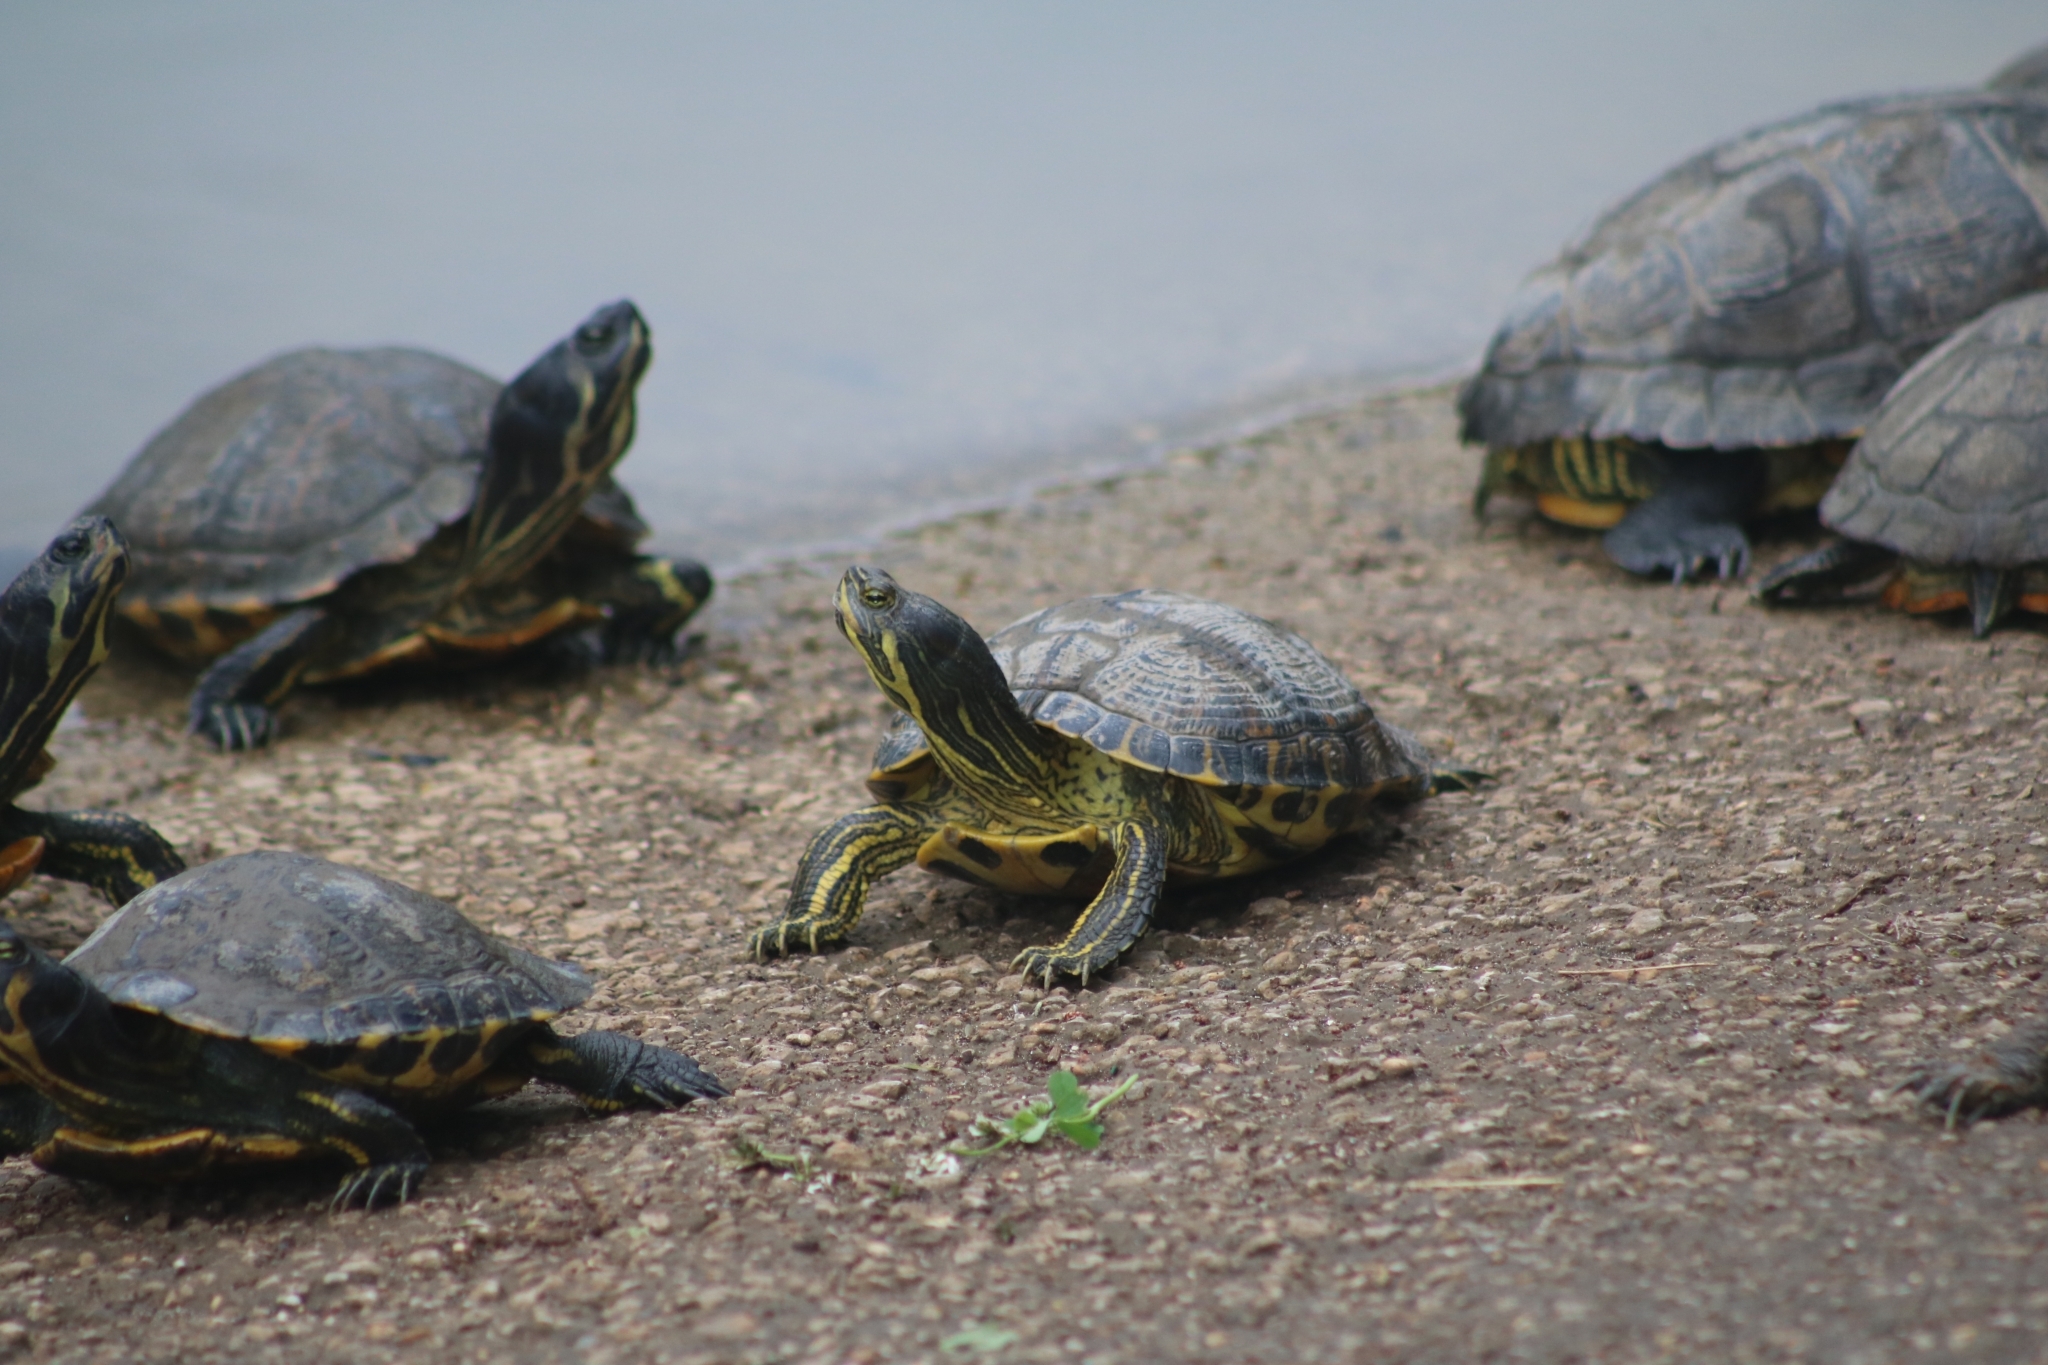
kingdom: Animalia
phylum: Chordata
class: Testudines
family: Emydidae
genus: Trachemys
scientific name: Trachemys scripta
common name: Slider
